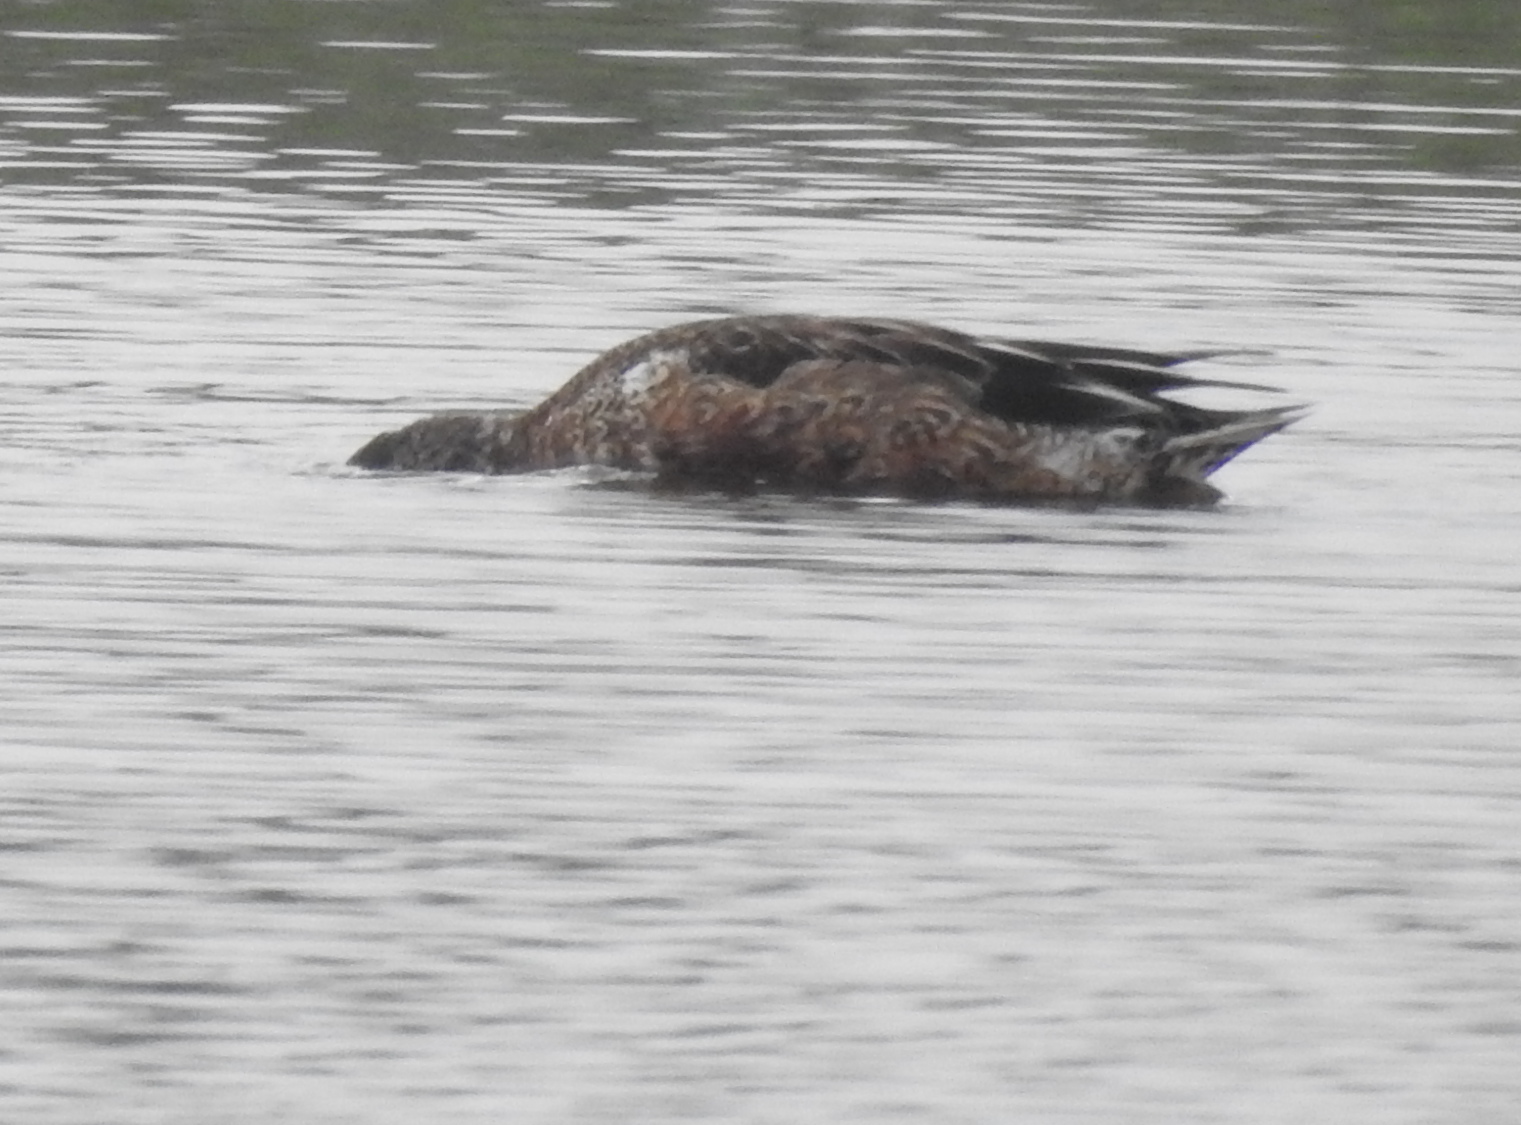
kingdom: Animalia
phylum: Chordata
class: Aves
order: Anseriformes
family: Anatidae
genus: Spatula
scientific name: Spatula clypeata
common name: Northern shoveler
